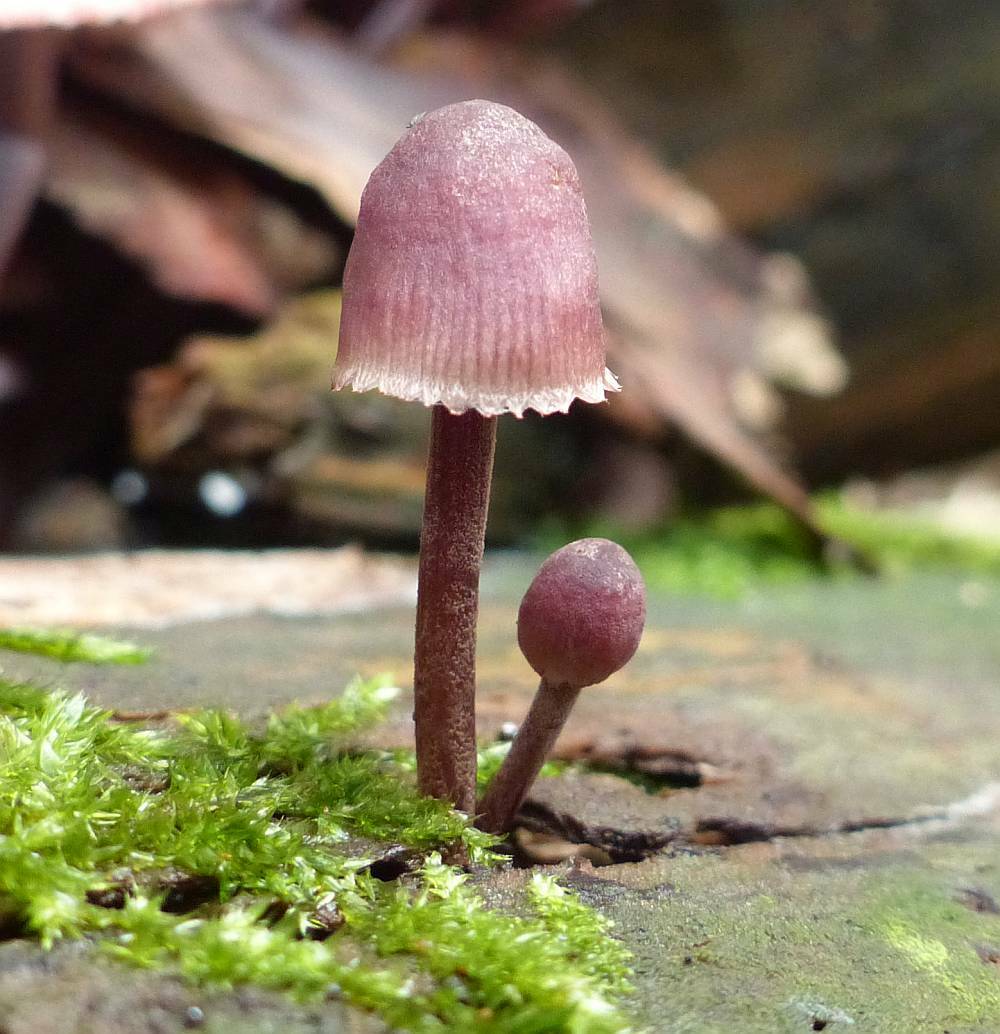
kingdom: Fungi
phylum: Basidiomycota
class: Agaricomycetes
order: Agaricales
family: Mycenaceae
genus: Mycena
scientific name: Mycena haematopus
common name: Burgundydrop bonnet
